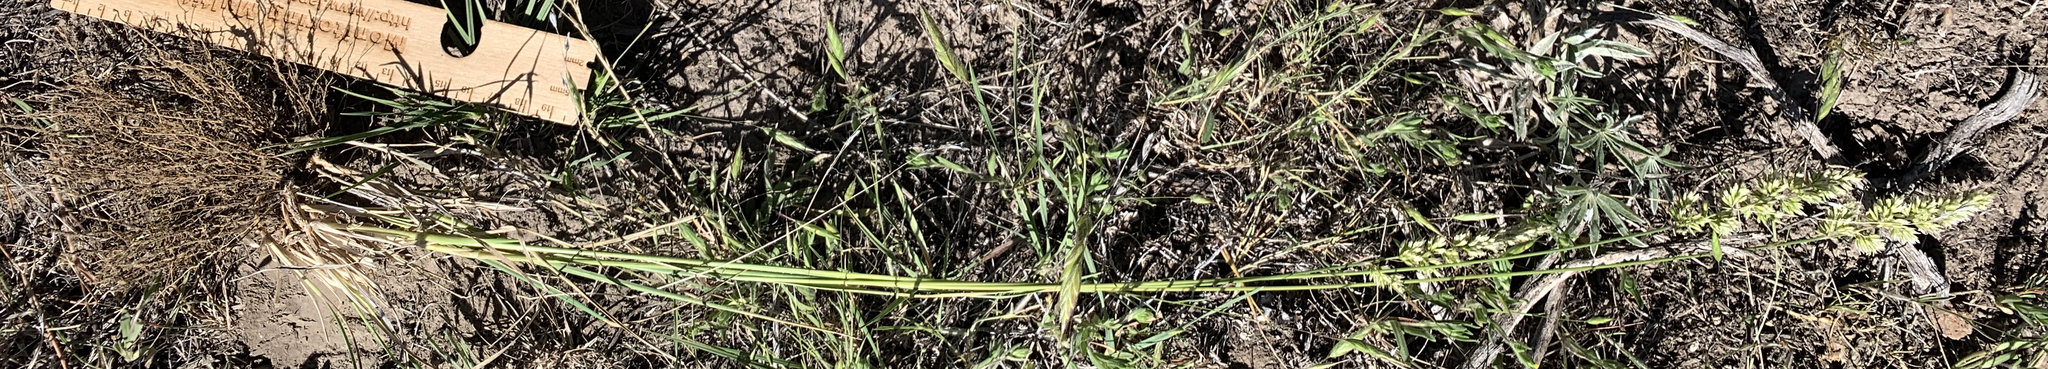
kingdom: Plantae
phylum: Tracheophyta
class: Liliopsida
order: Poales
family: Poaceae
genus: Koeleria
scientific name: Koeleria macrantha
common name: Crested hair-grass
